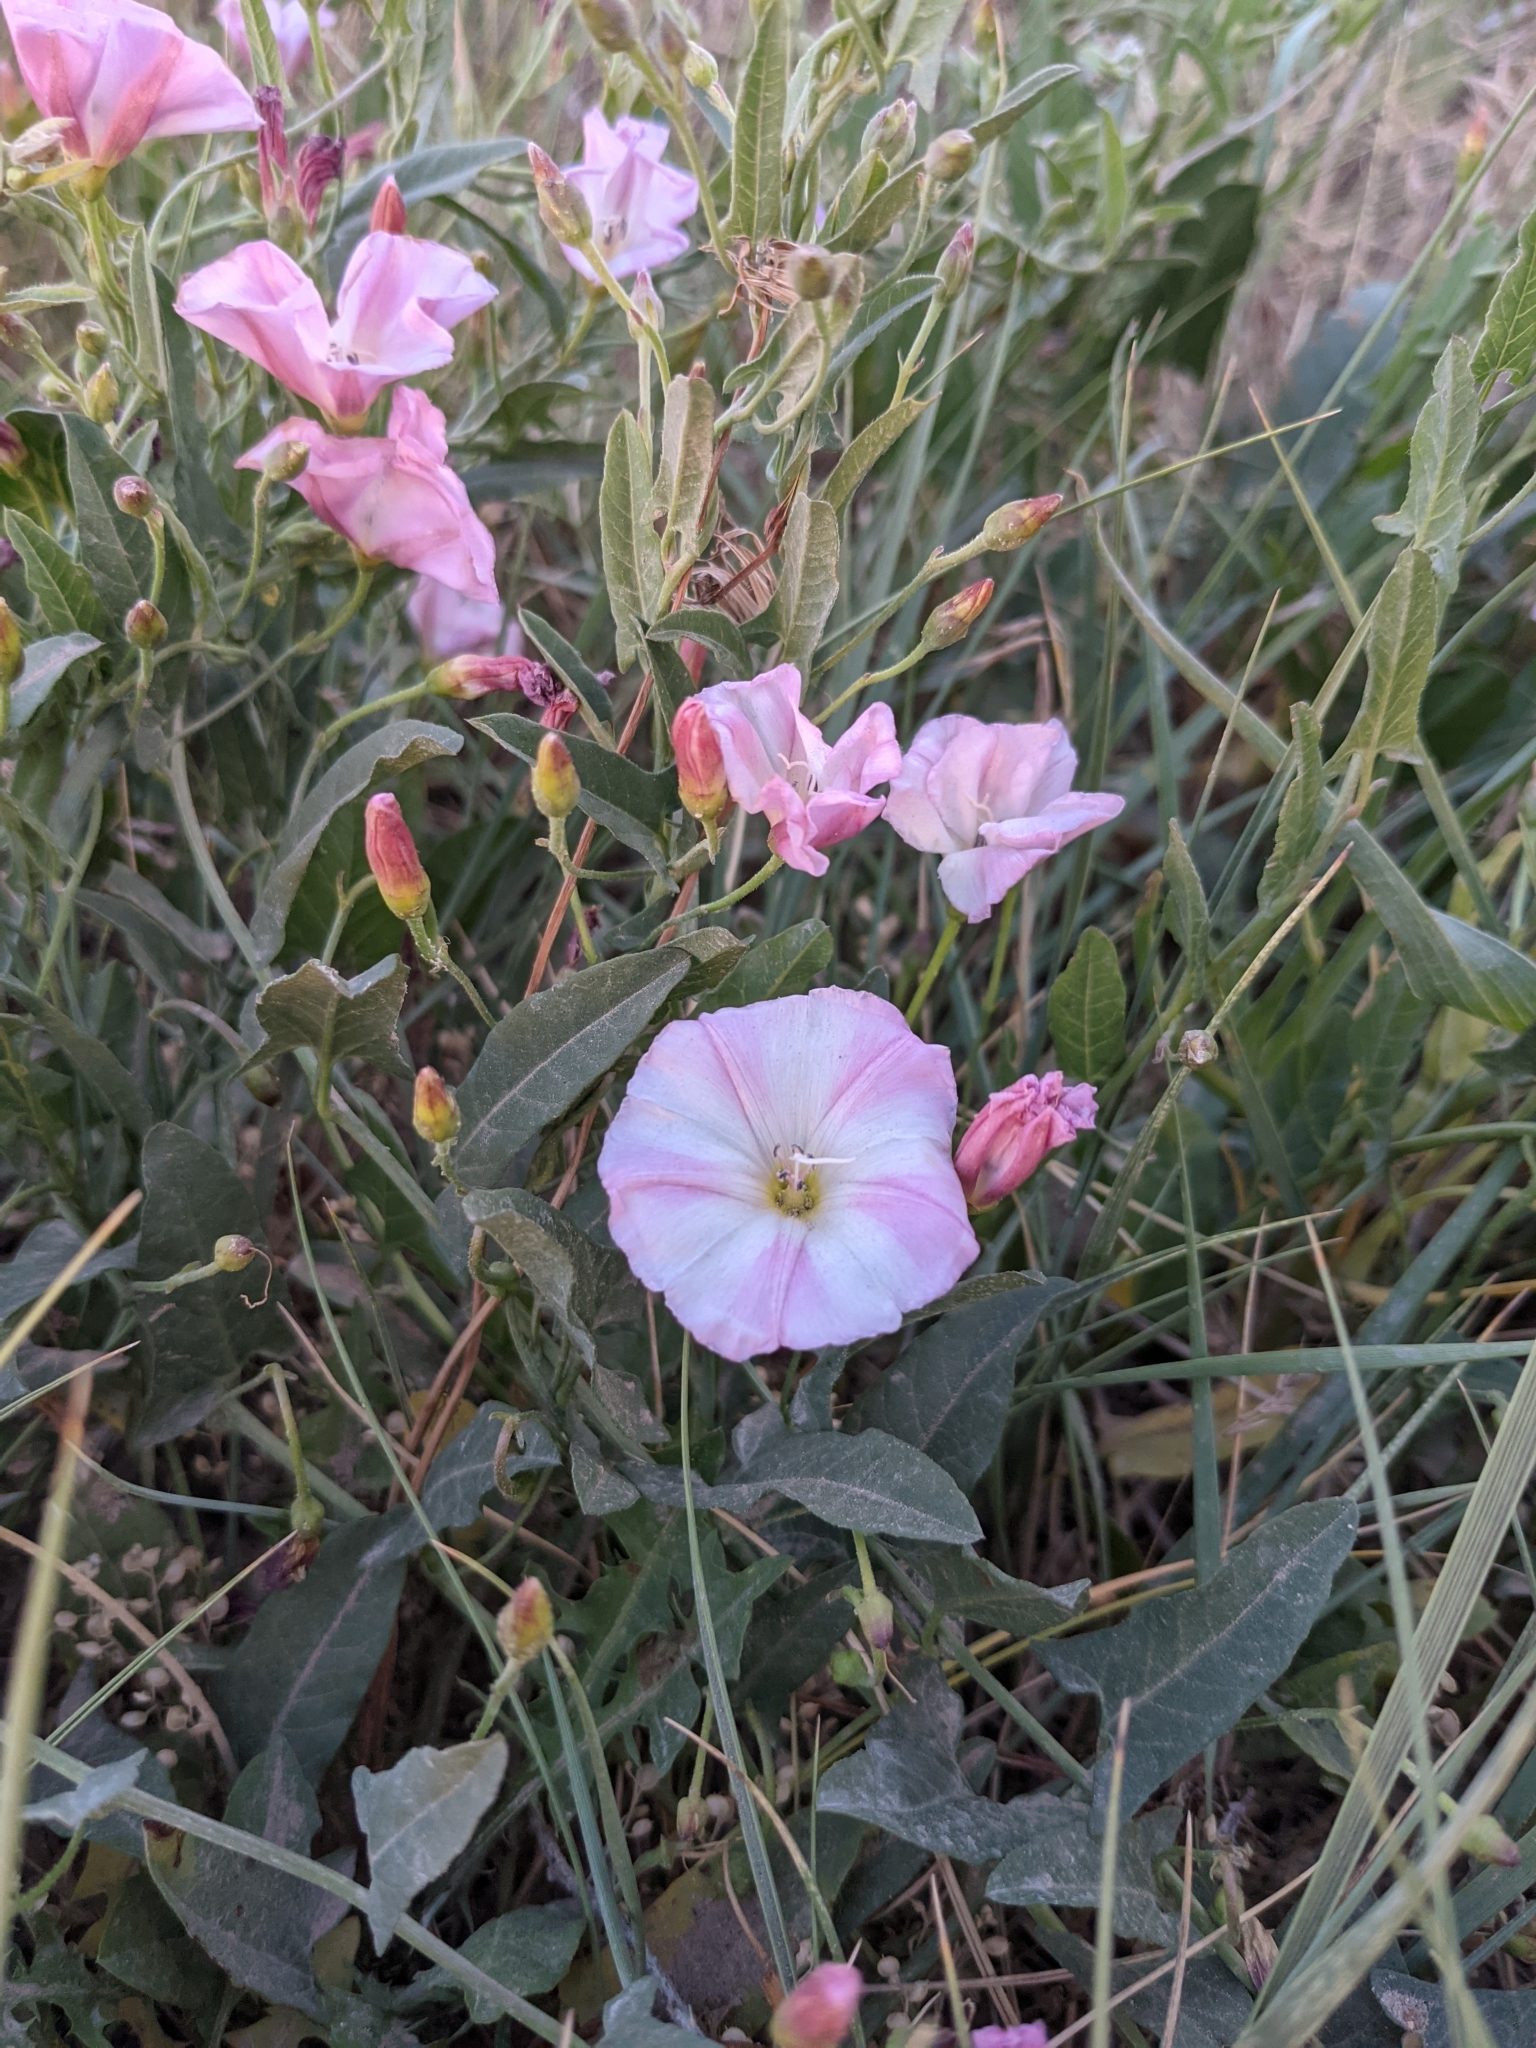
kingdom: Plantae
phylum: Tracheophyta
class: Magnoliopsida
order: Solanales
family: Convolvulaceae
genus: Convolvulus
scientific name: Convolvulus arvensis
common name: Field bindweed
